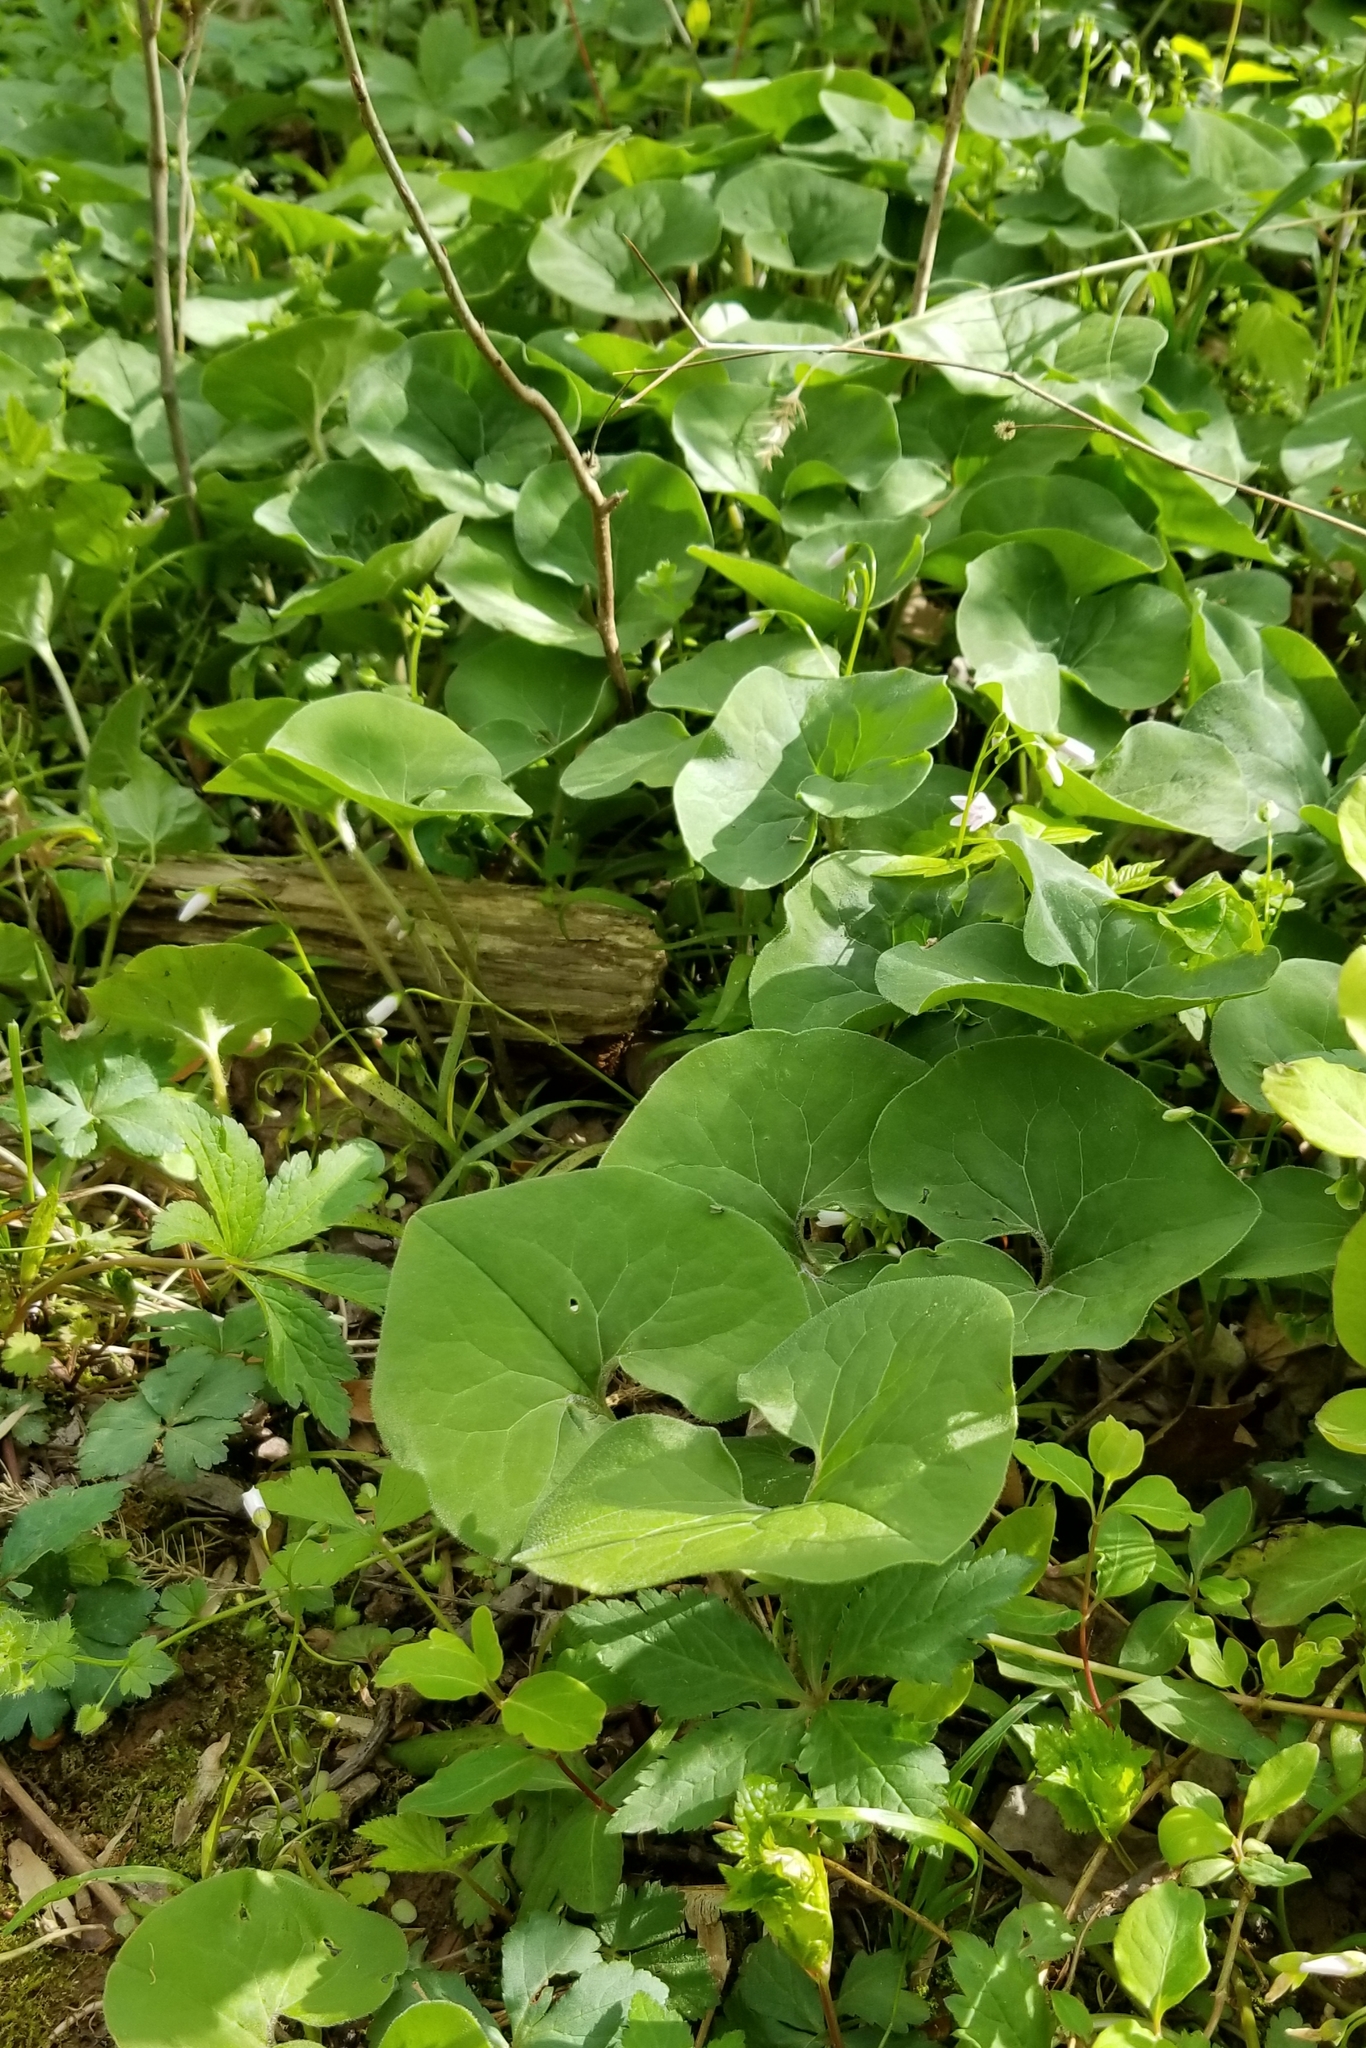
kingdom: Plantae
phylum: Tracheophyta
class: Magnoliopsida
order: Piperales
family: Aristolochiaceae
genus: Asarum
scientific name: Asarum canadense
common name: Wild ginger
